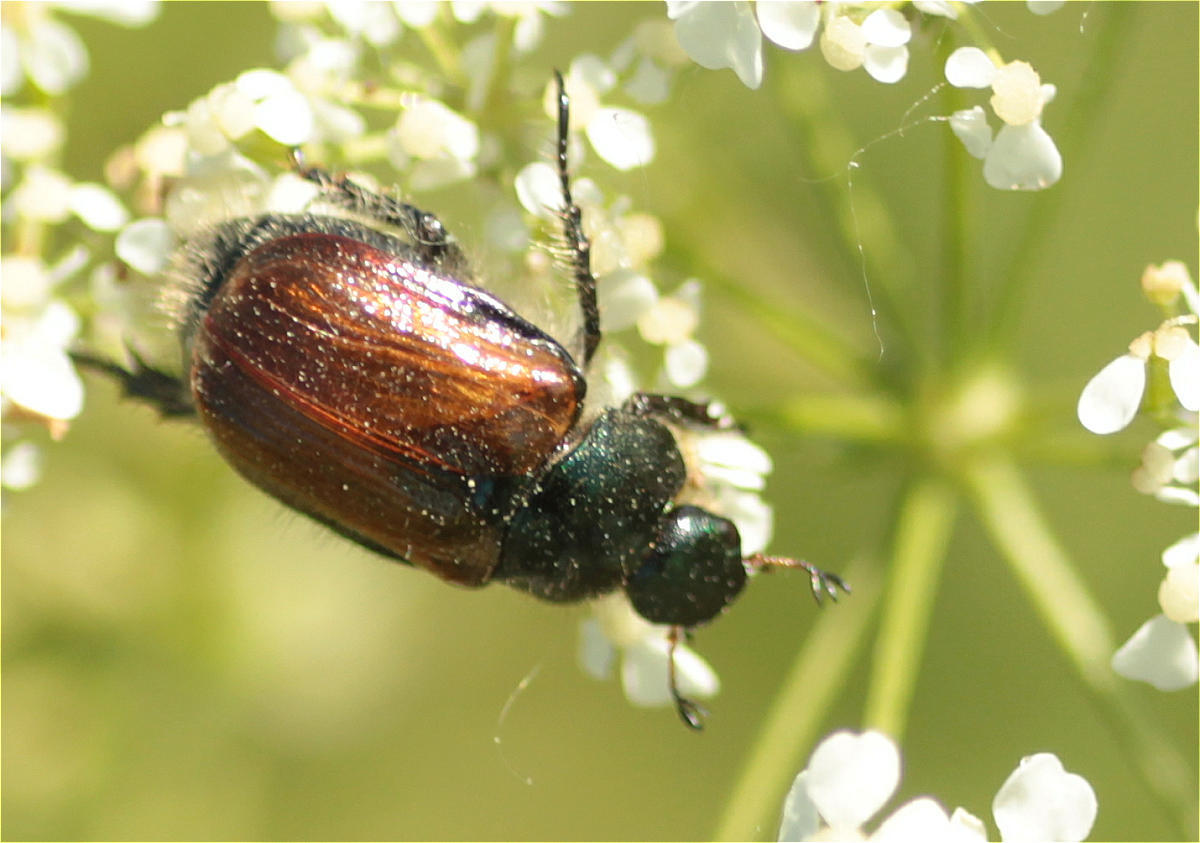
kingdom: Animalia
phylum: Arthropoda
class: Insecta
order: Coleoptera
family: Scarabaeidae
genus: Phyllopertha
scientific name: Phyllopertha horticola
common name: Garden chafer
